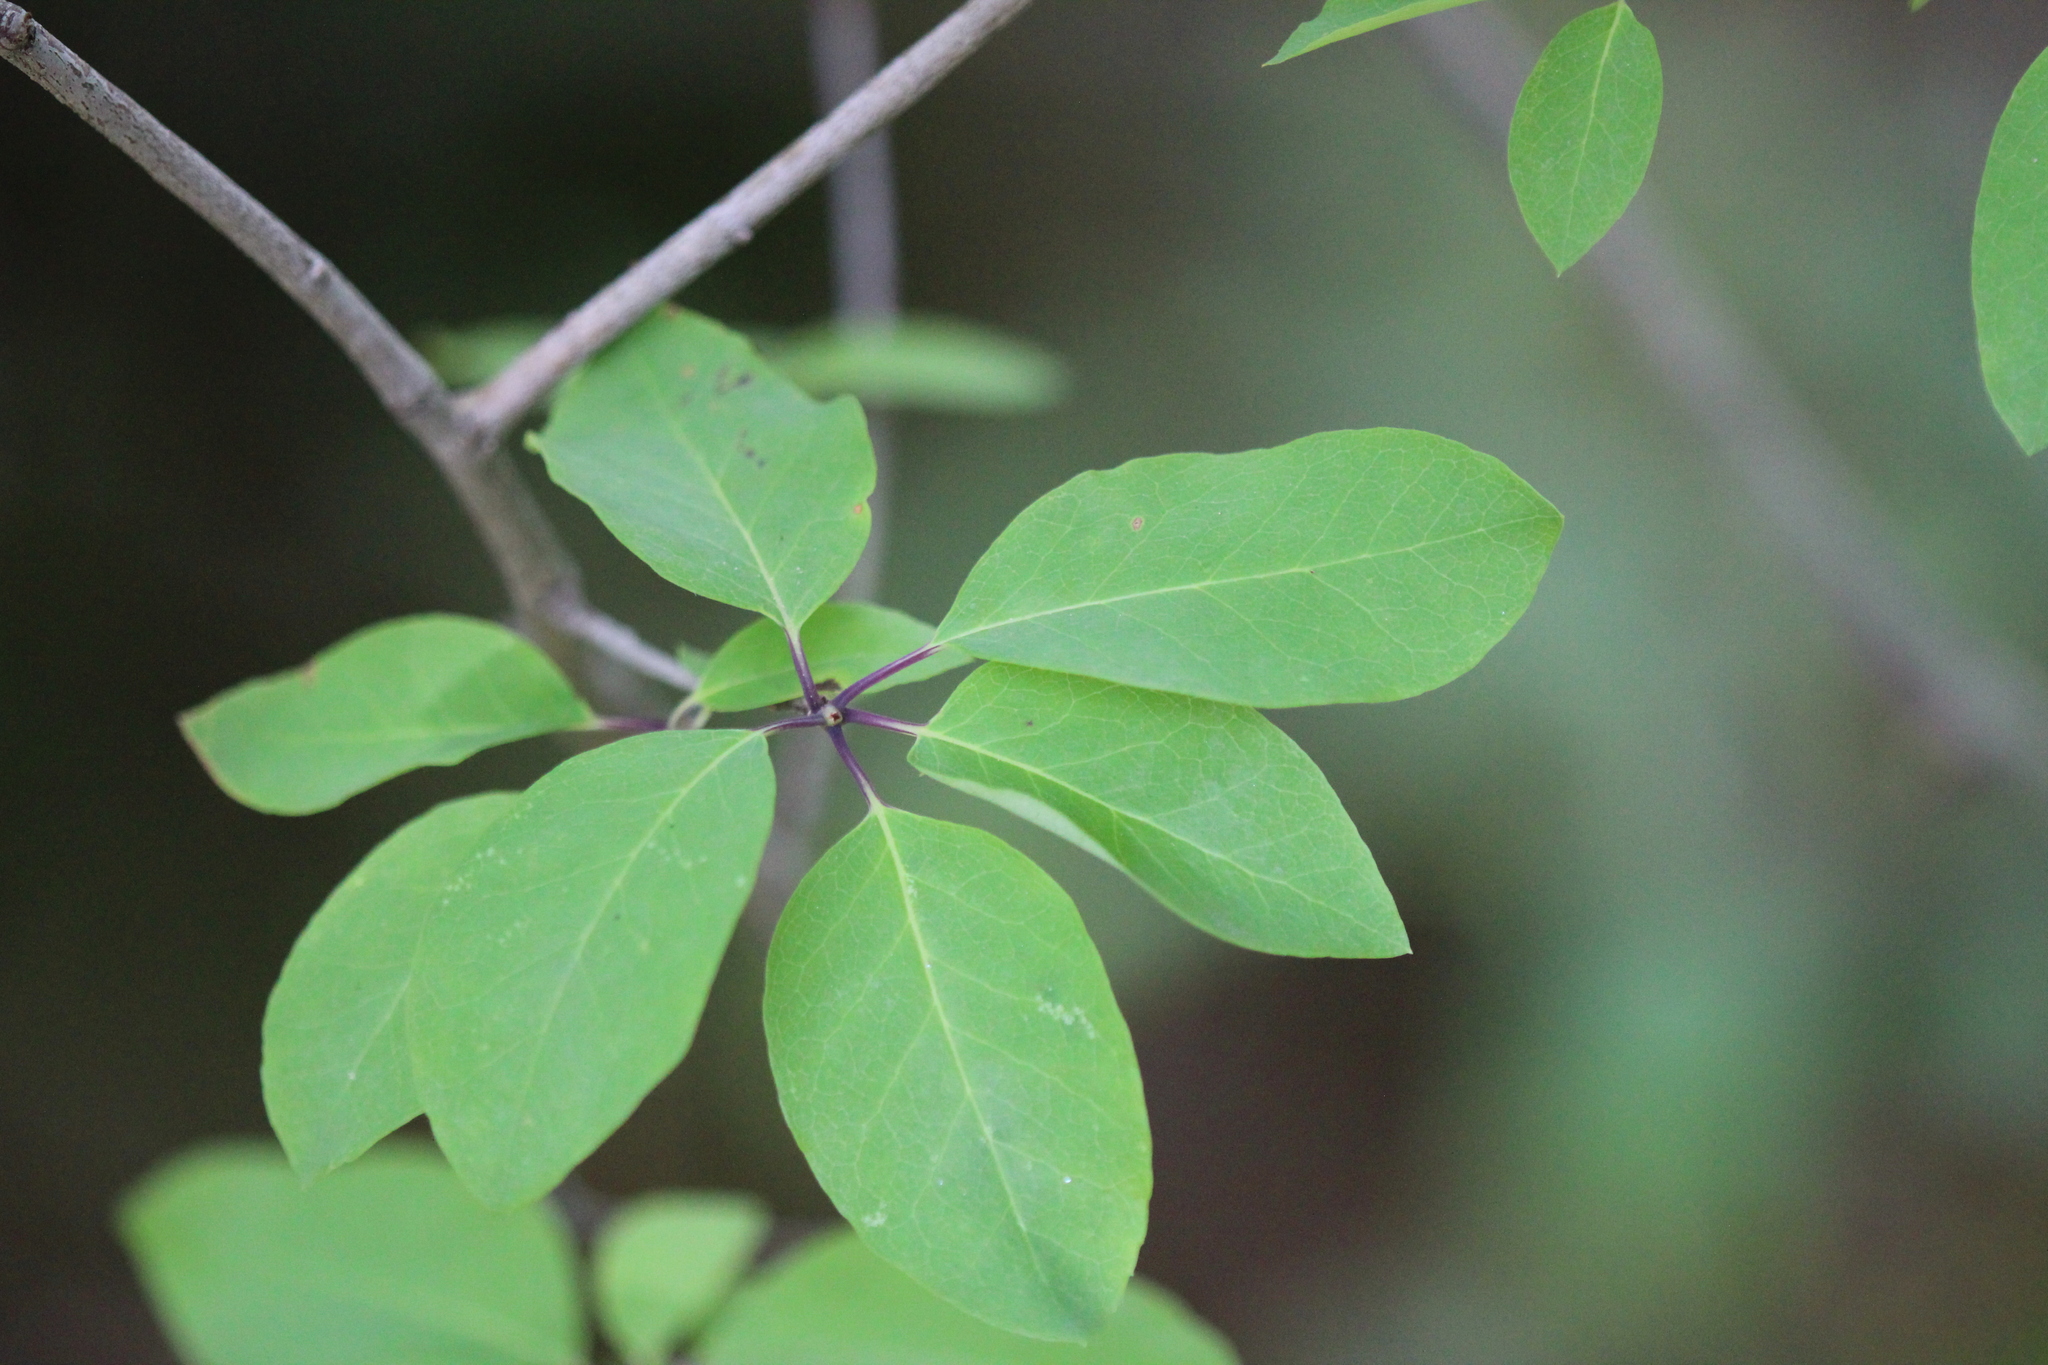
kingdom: Plantae
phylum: Tracheophyta
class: Magnoliopsida
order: Aquifoliales
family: Aquifoliaceae
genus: Ilex
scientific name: Ilex mucronata
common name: Catberry
